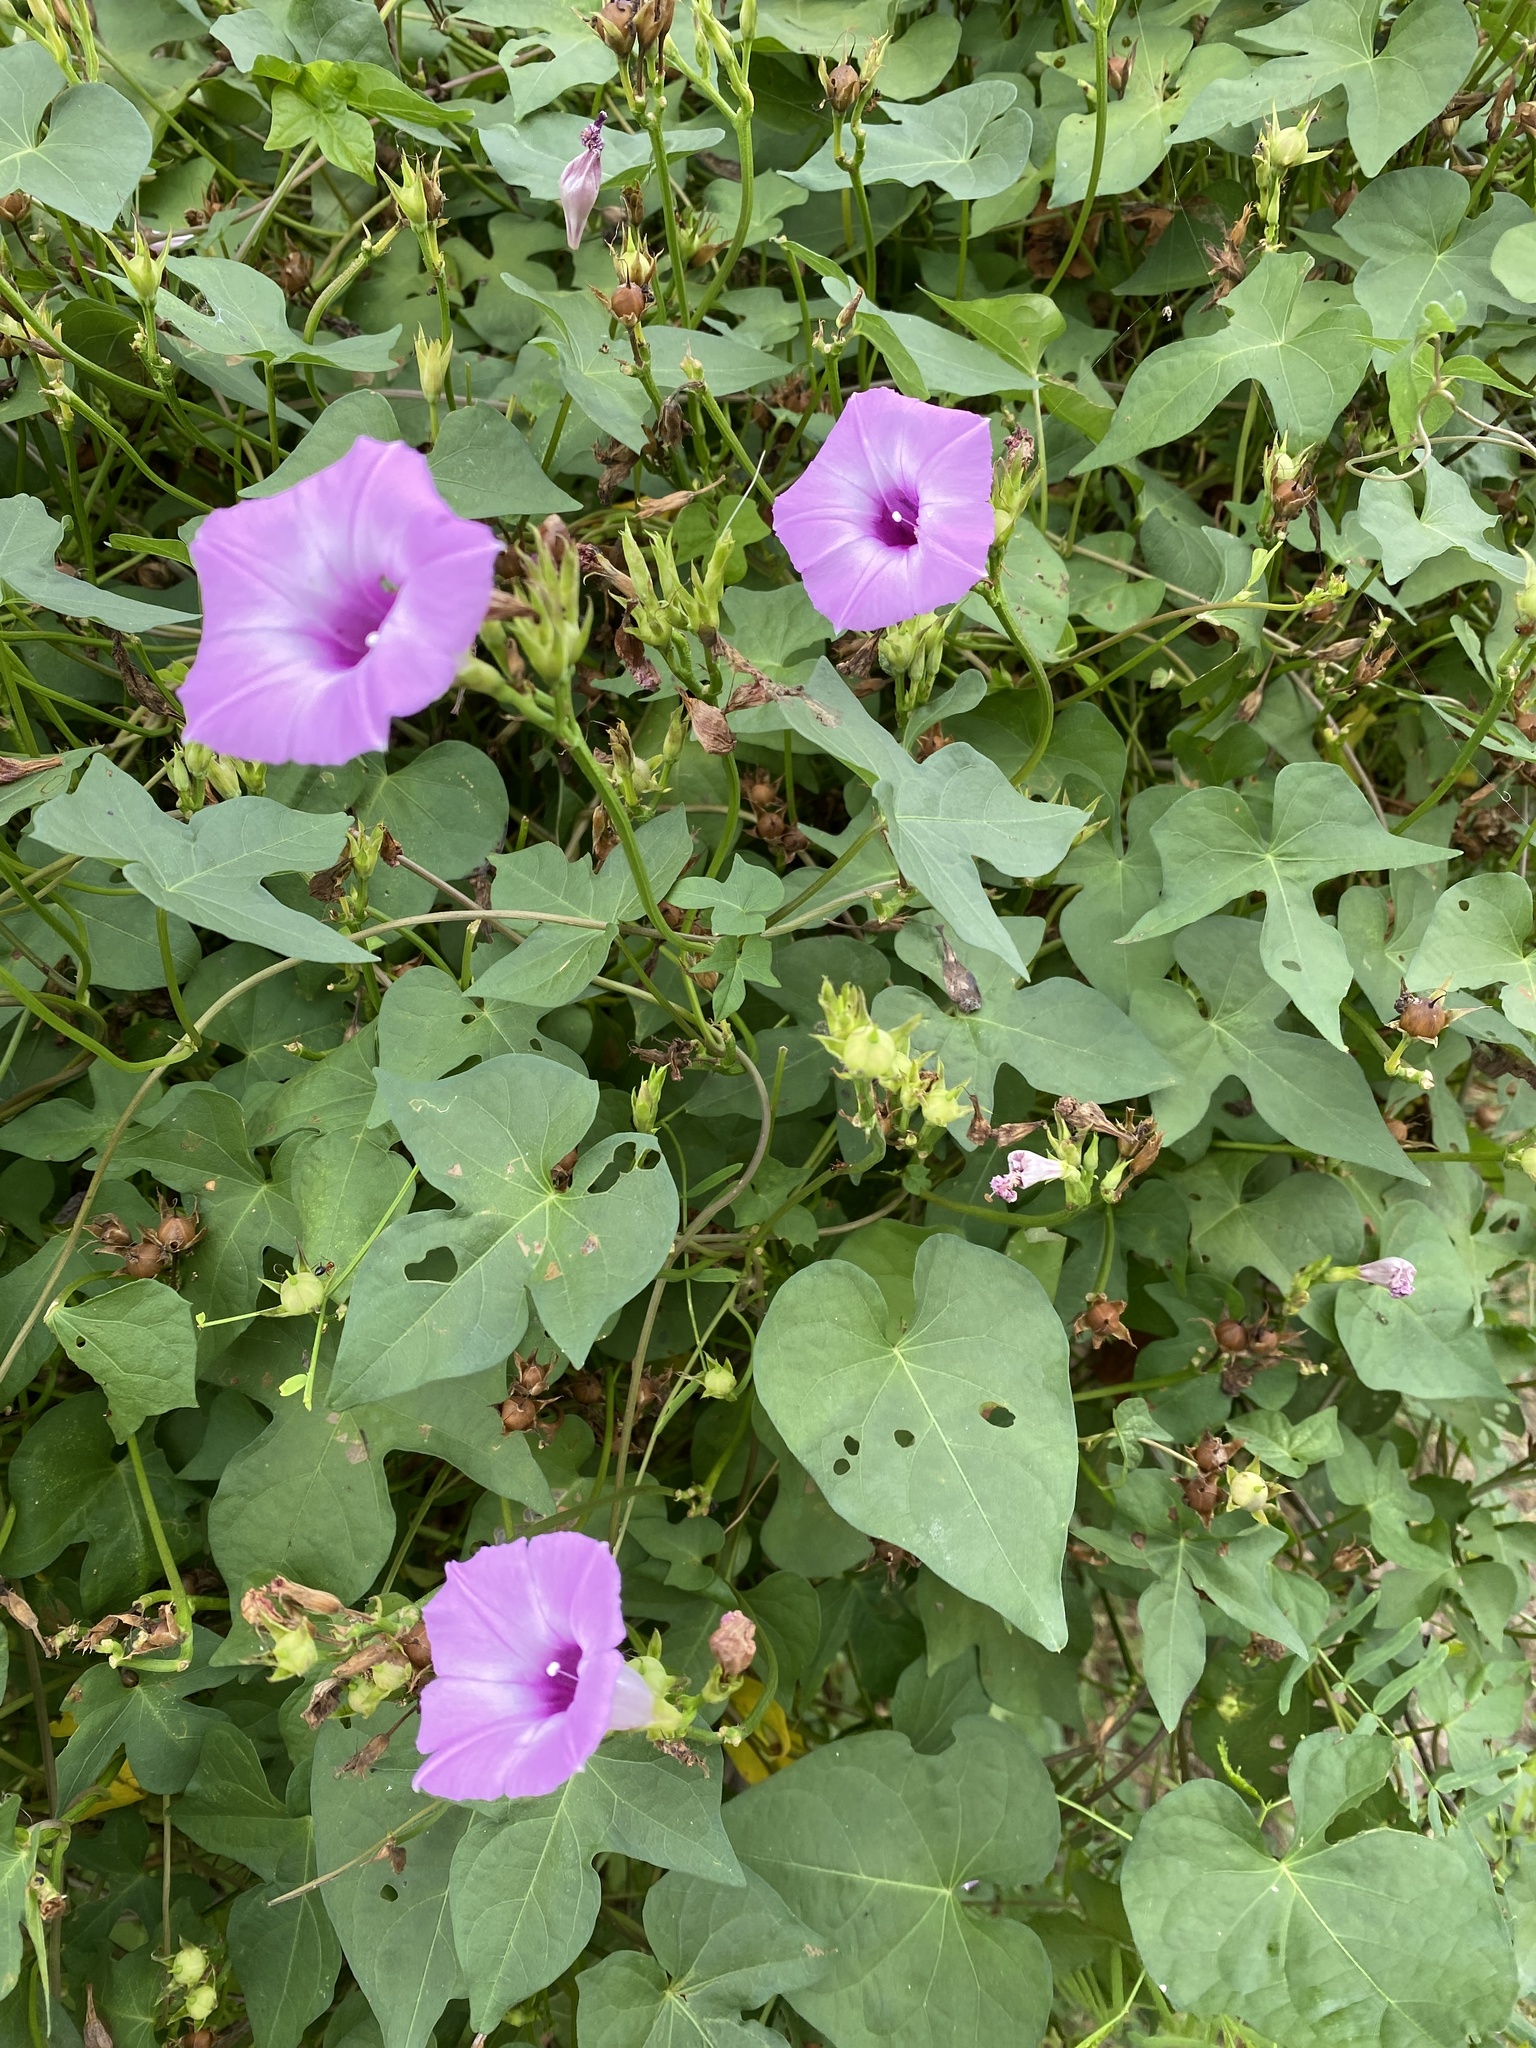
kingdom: Plantae
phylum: Tracheophyta
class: Magnoliopsida
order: Solanales
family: Convolvulaceae
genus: Ipomoea
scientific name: Ipomoea cordatotriloba
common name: Cotton morning glory
